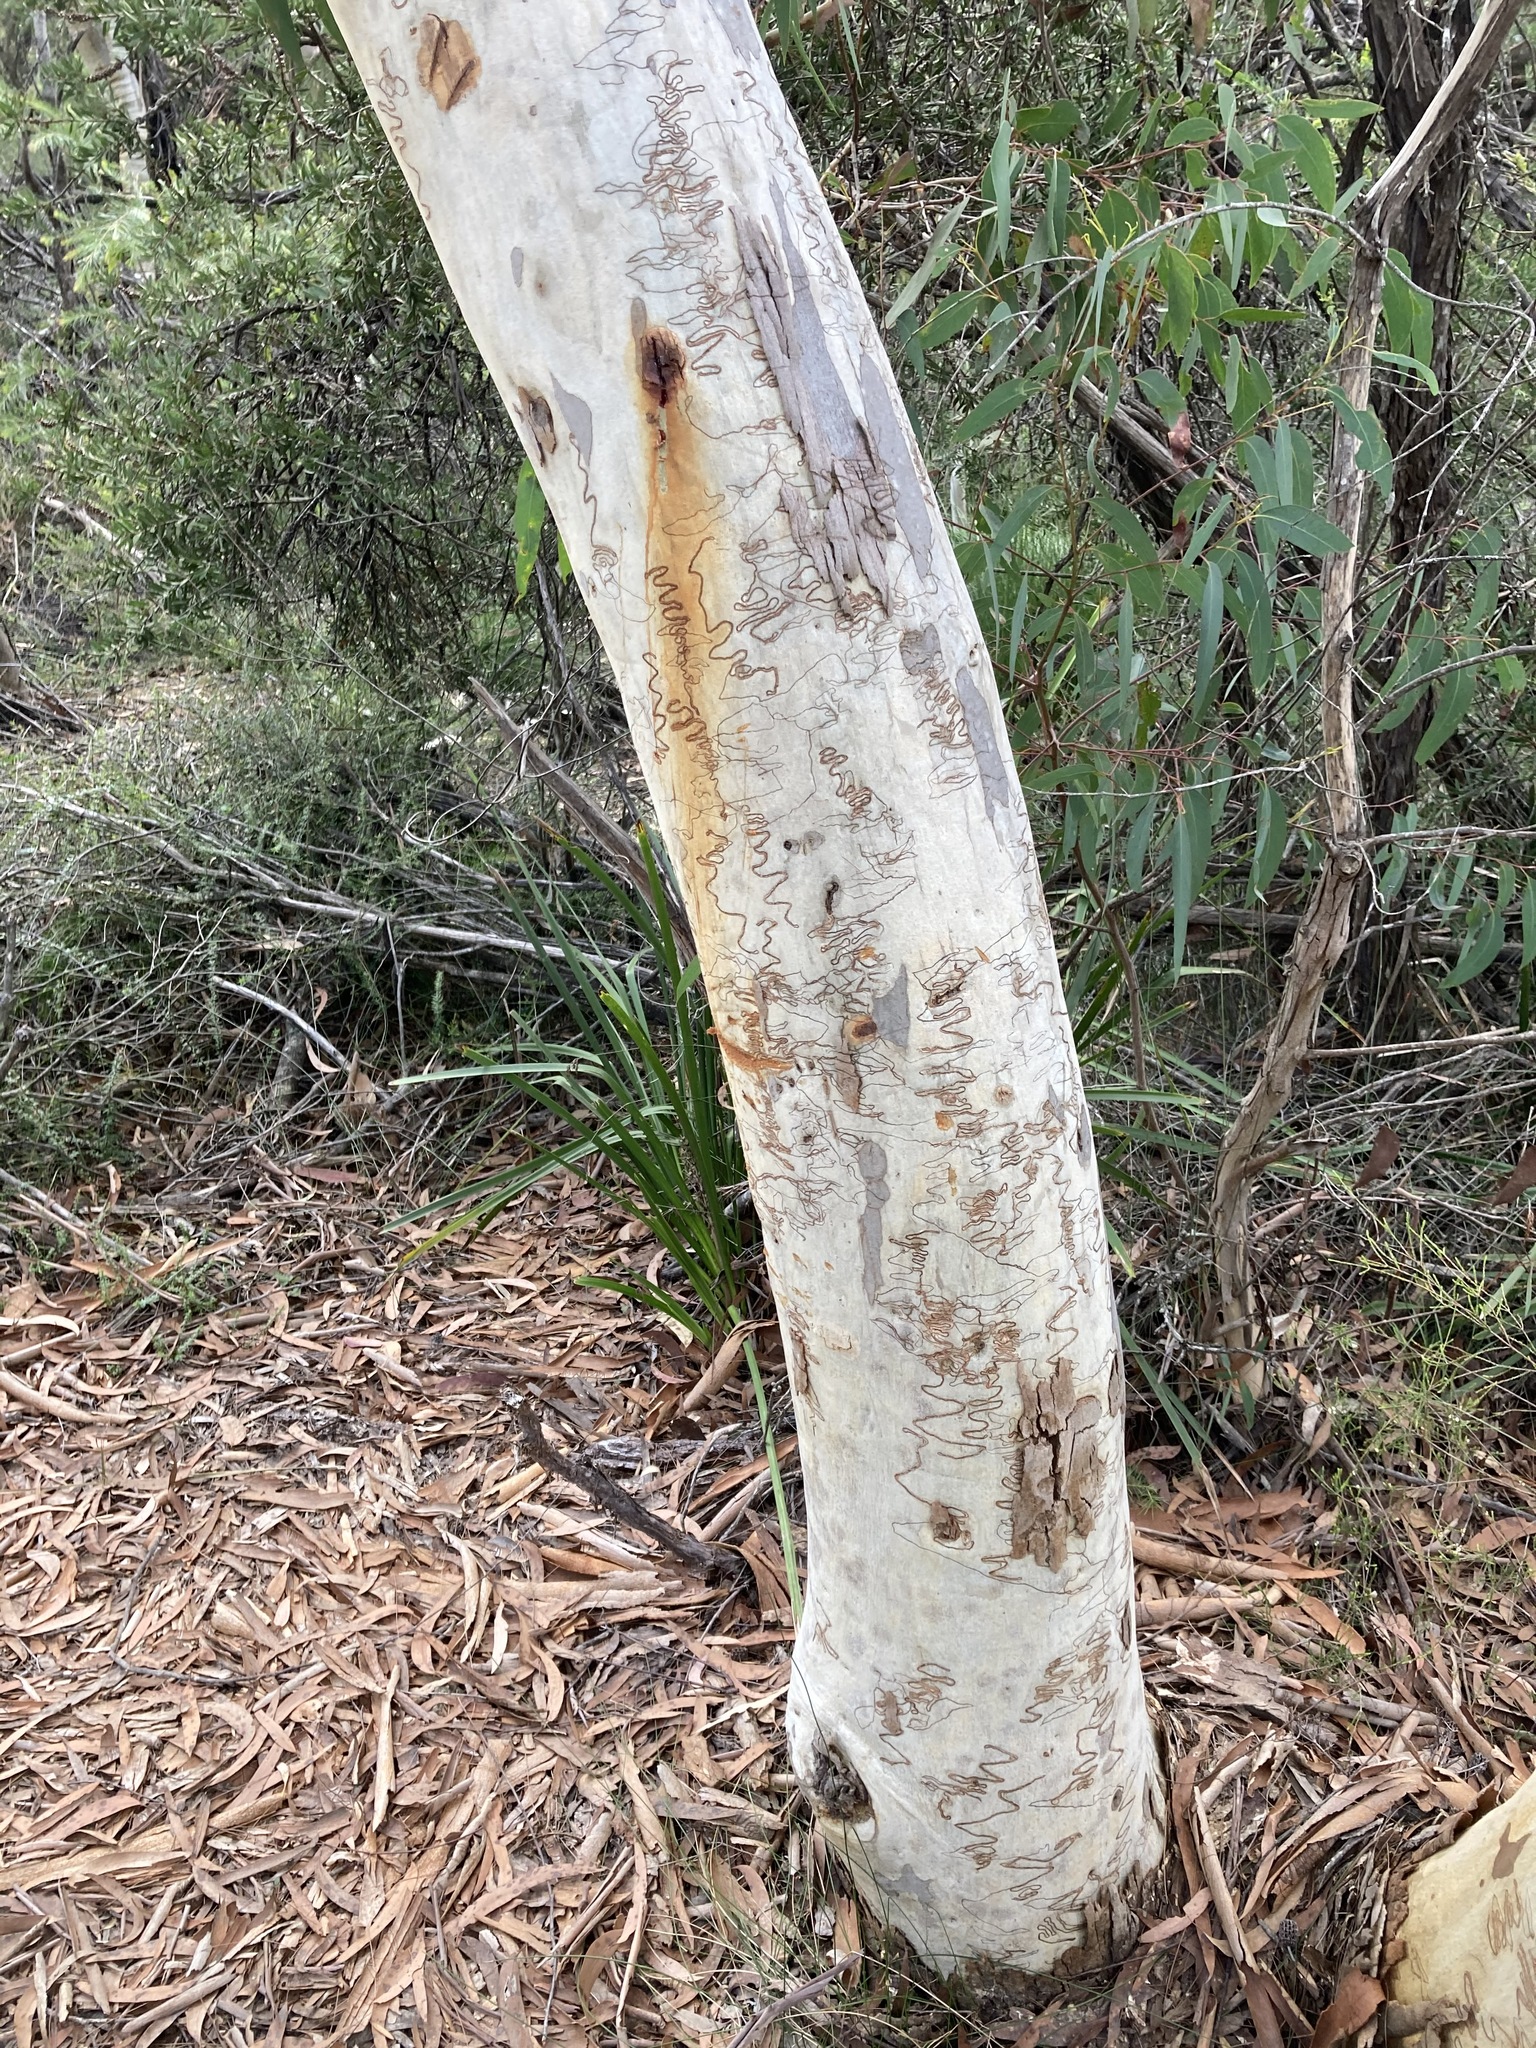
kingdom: Plantae
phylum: Tracheophyta
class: Magnoliopsida
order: Myrtales
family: Myrtaceae
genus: Eucalyptus
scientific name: Eucalyptus haemastoma
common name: Scribbly-gum
